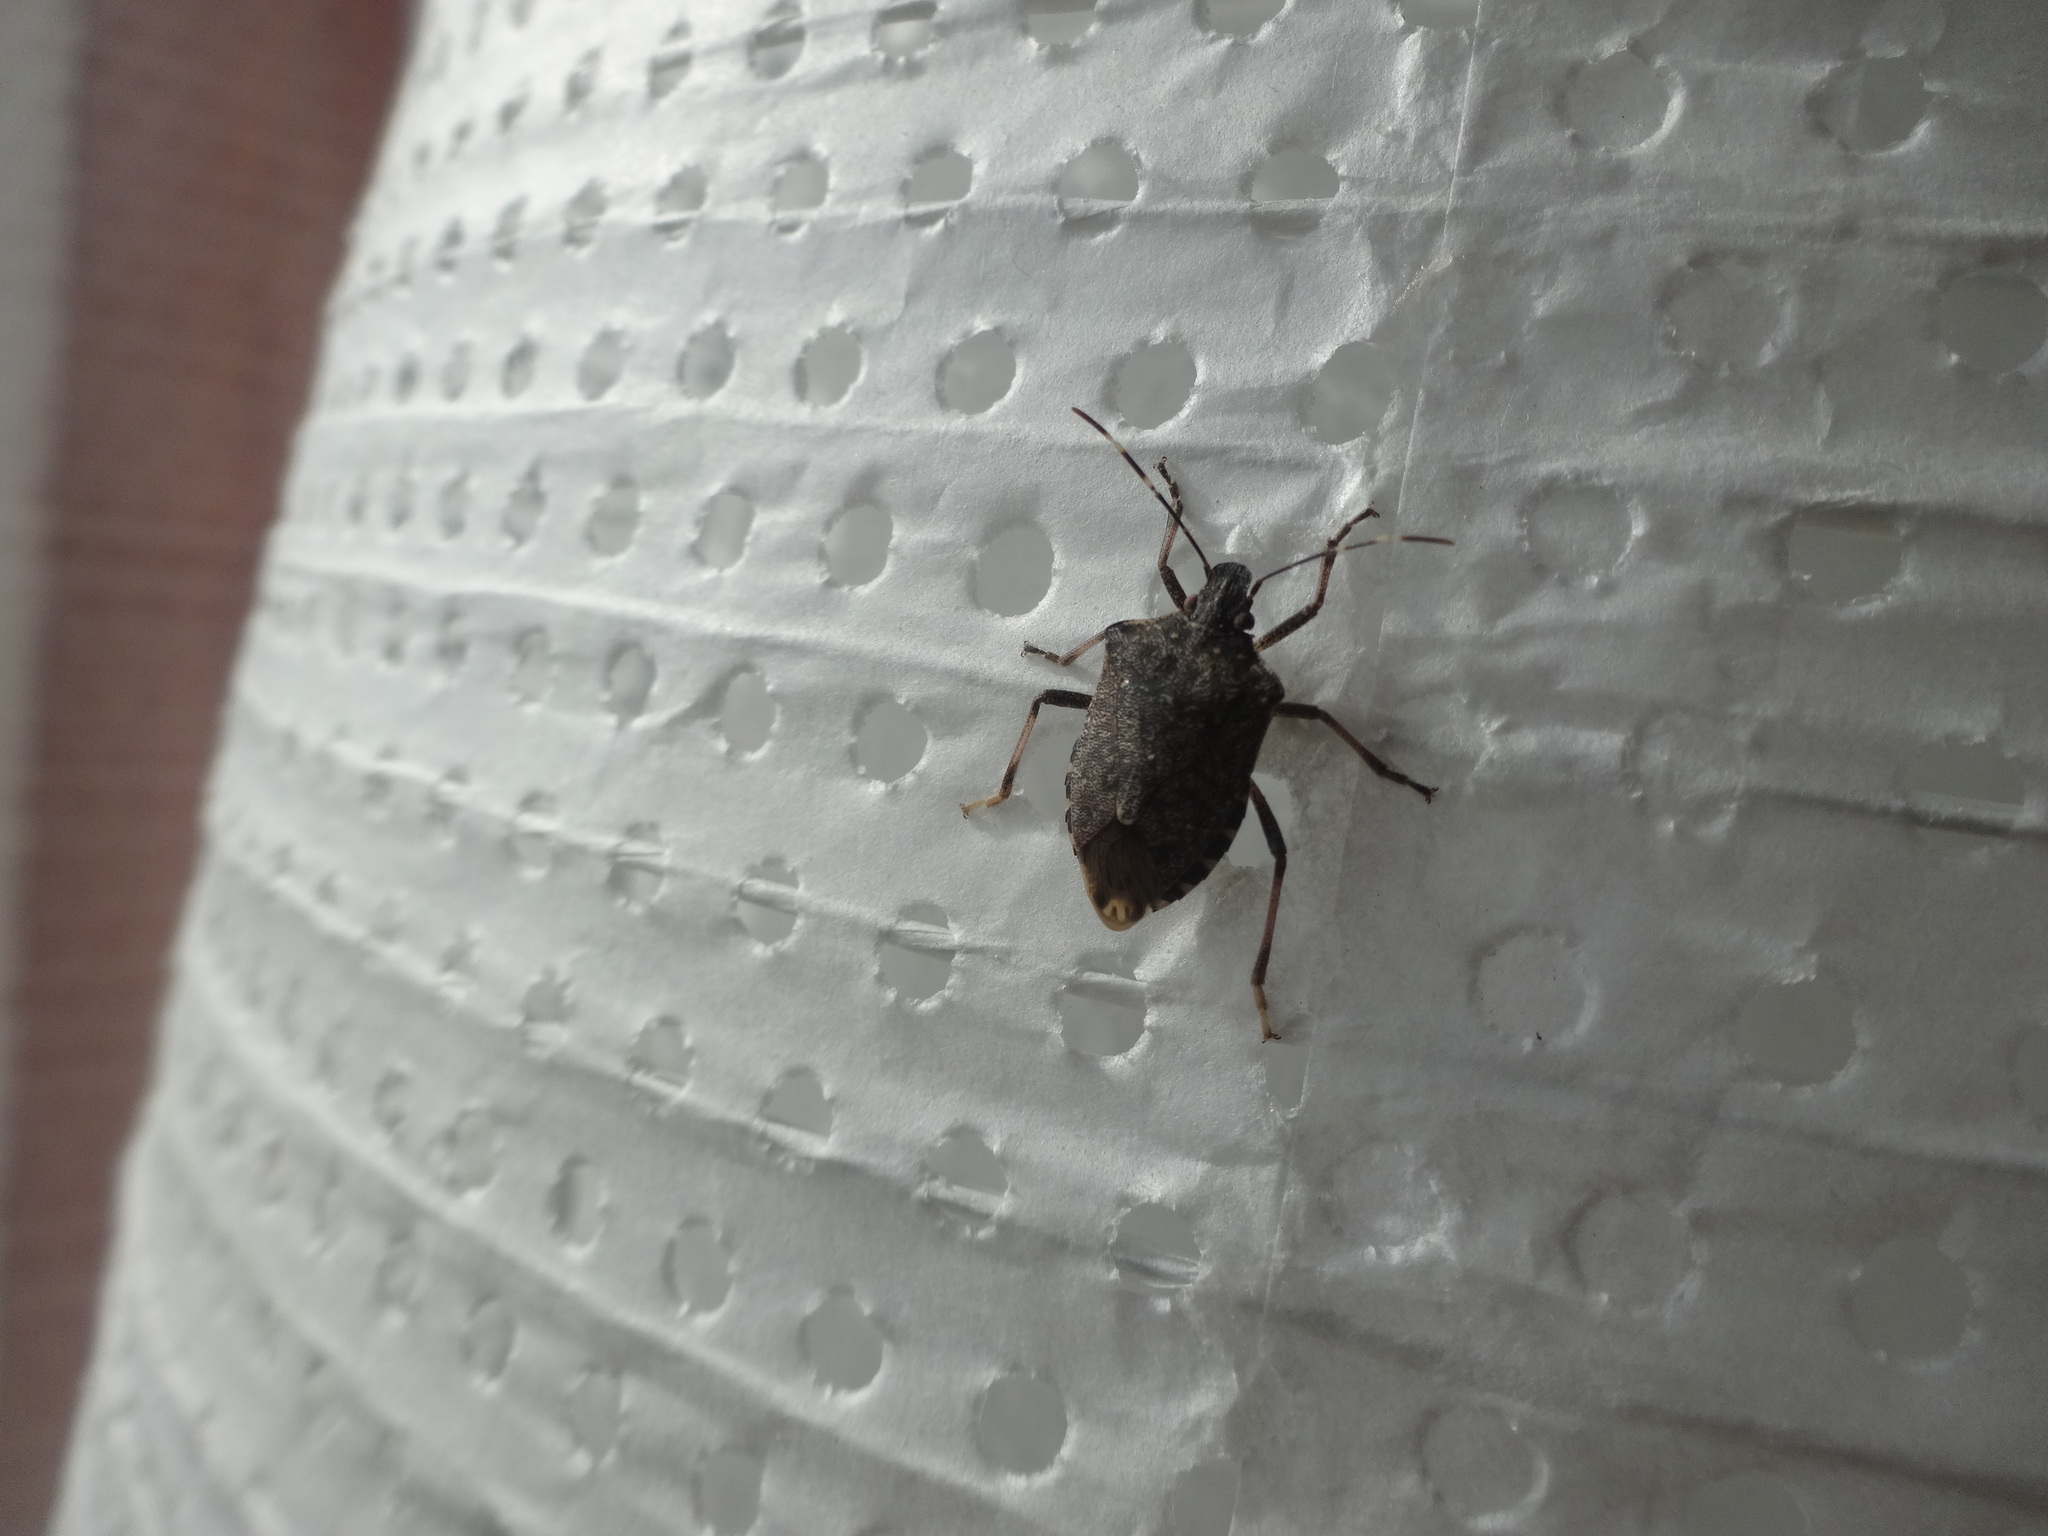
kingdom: Animalia
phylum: Arthropoda
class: Insecta
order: Hemiptera
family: Pentatomidae
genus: Halyomorpha
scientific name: Halyomorpha halys
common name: Brown marmorated stink bug
